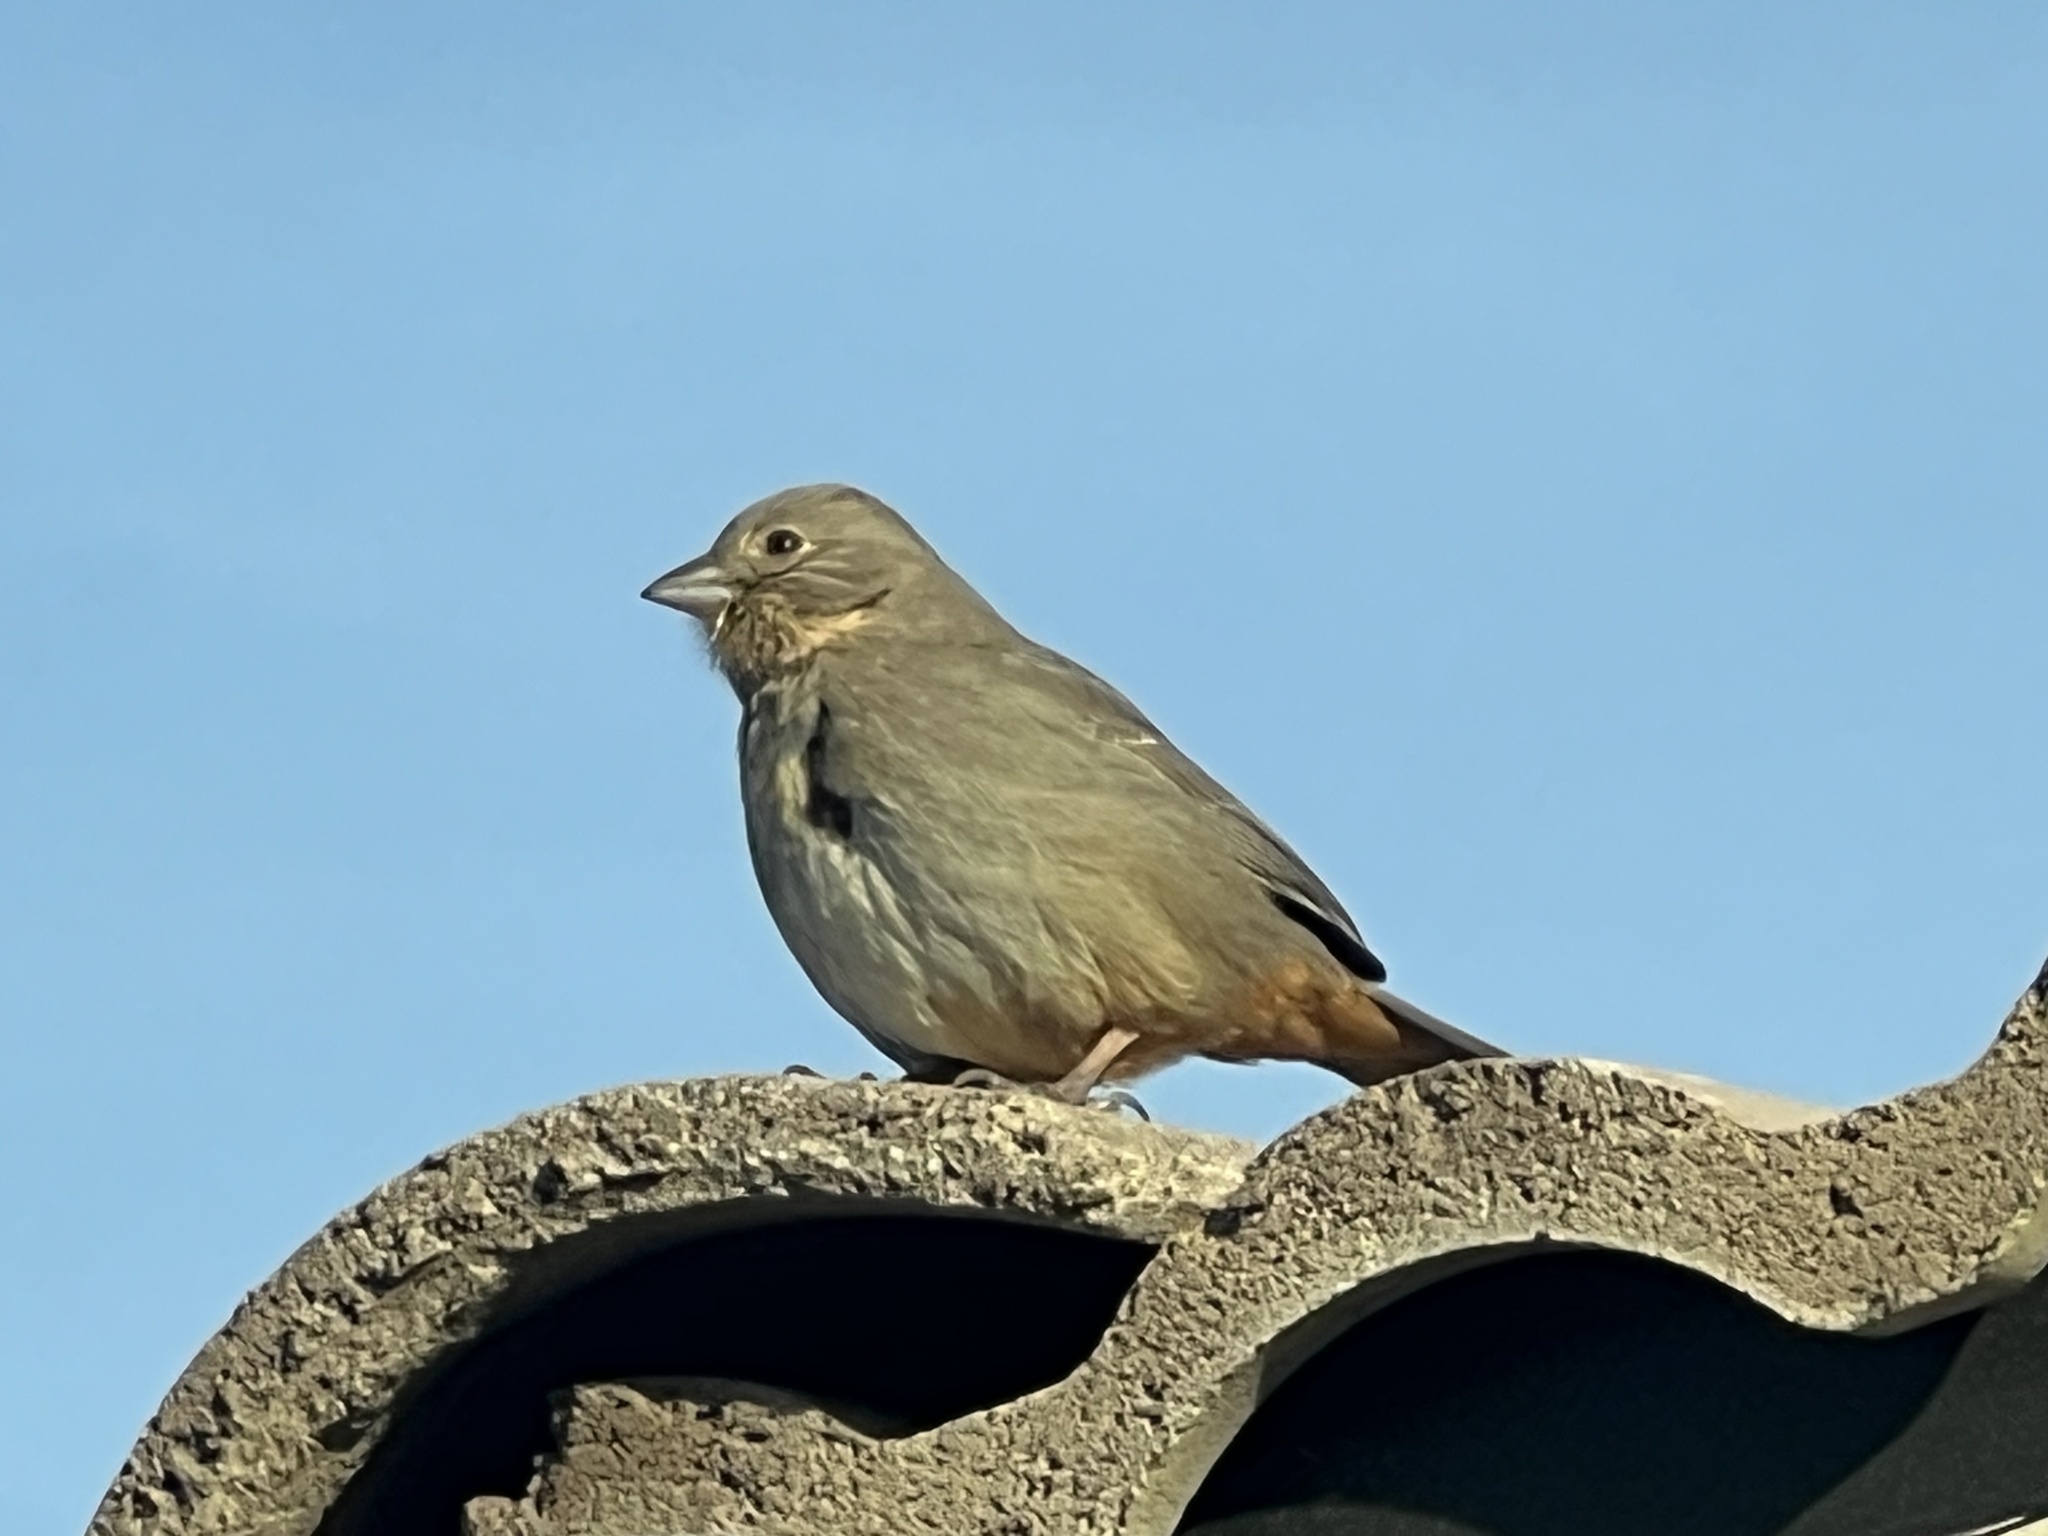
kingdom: Animalia
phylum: Chordata
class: Aves
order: Passeriformes
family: Passerellidae
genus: Melozone
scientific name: Melozone fusca
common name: Canyon towhee
